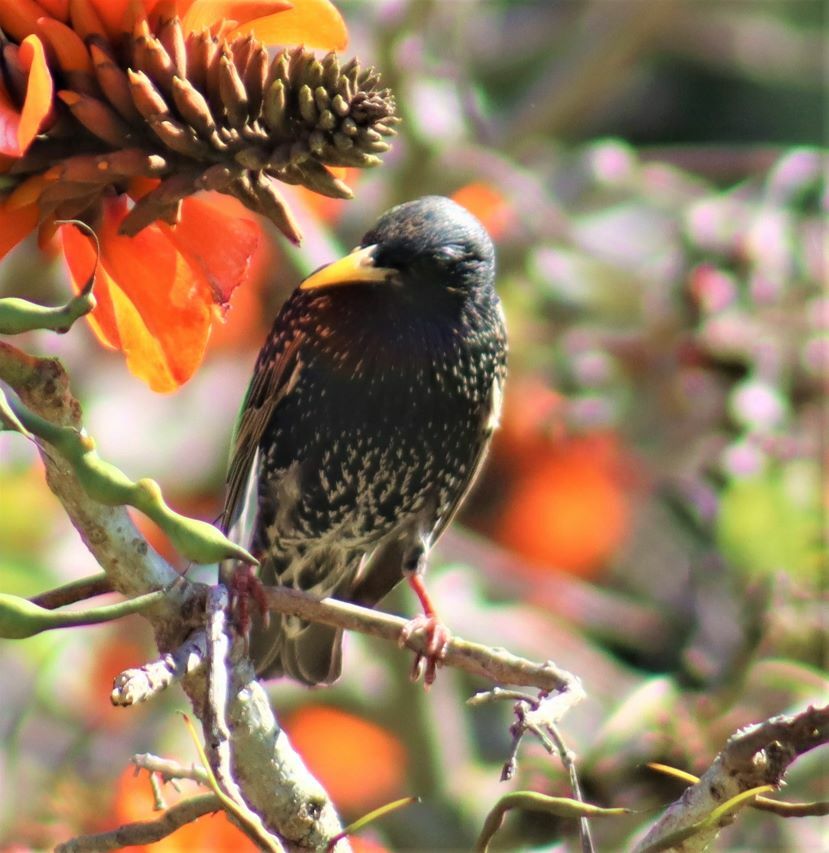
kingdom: Animalia
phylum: Chordata
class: Aves
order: Passeriformes
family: Sturnidae
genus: Sturnus
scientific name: Sturnus vulgaris
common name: Common starling
